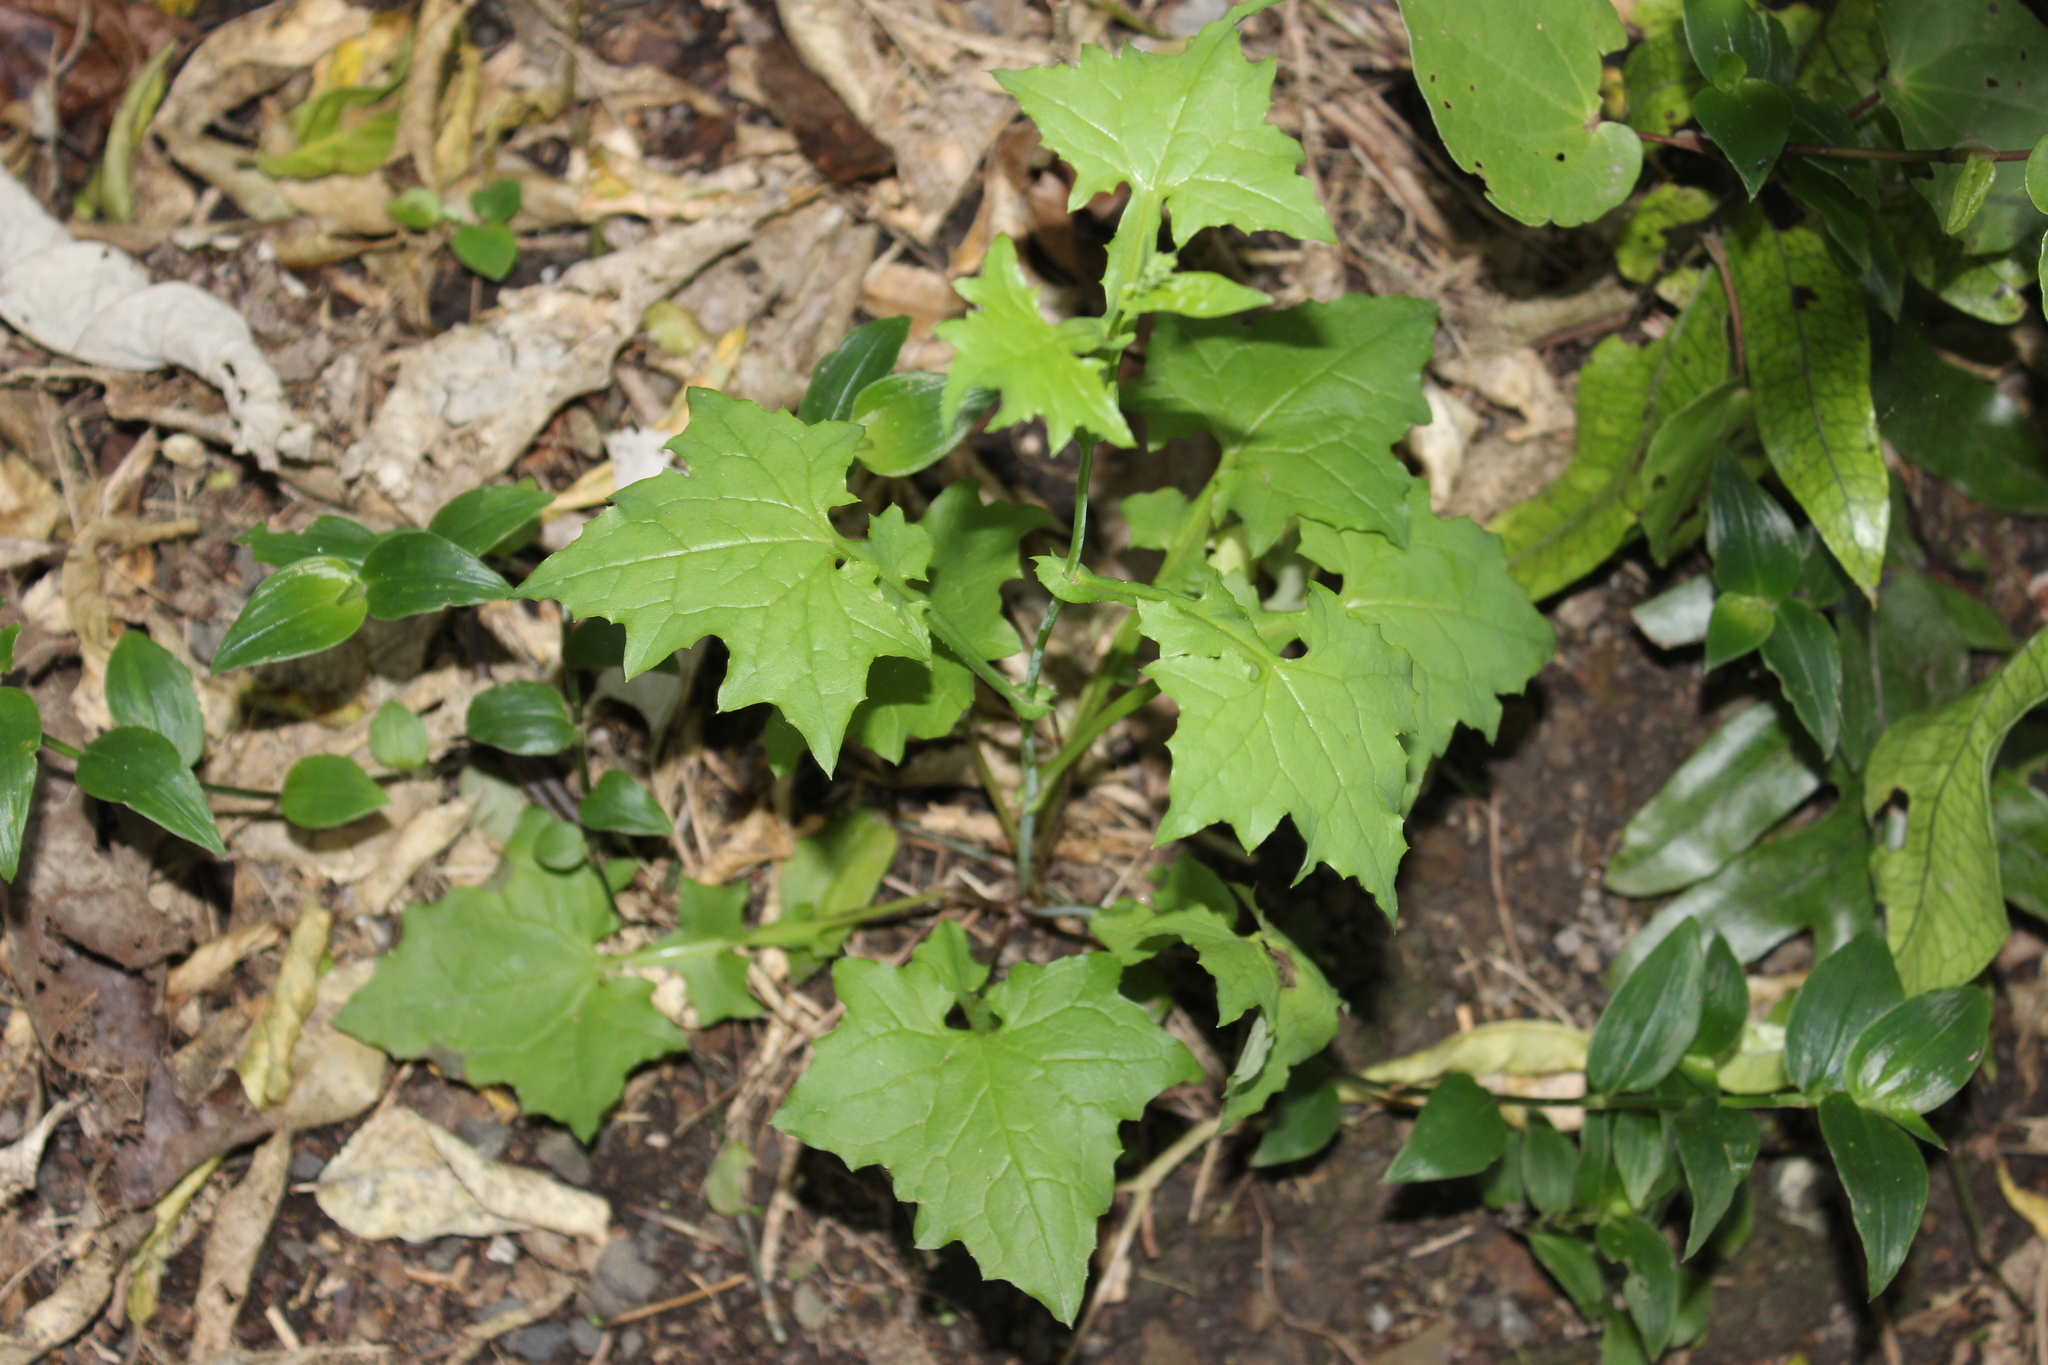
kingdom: Plantae
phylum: Tracheophyta
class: Magnoliopsida
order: Asterales
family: Asteraceae
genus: Mycelis
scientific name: Mycelis muralis
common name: Wall lettuce
